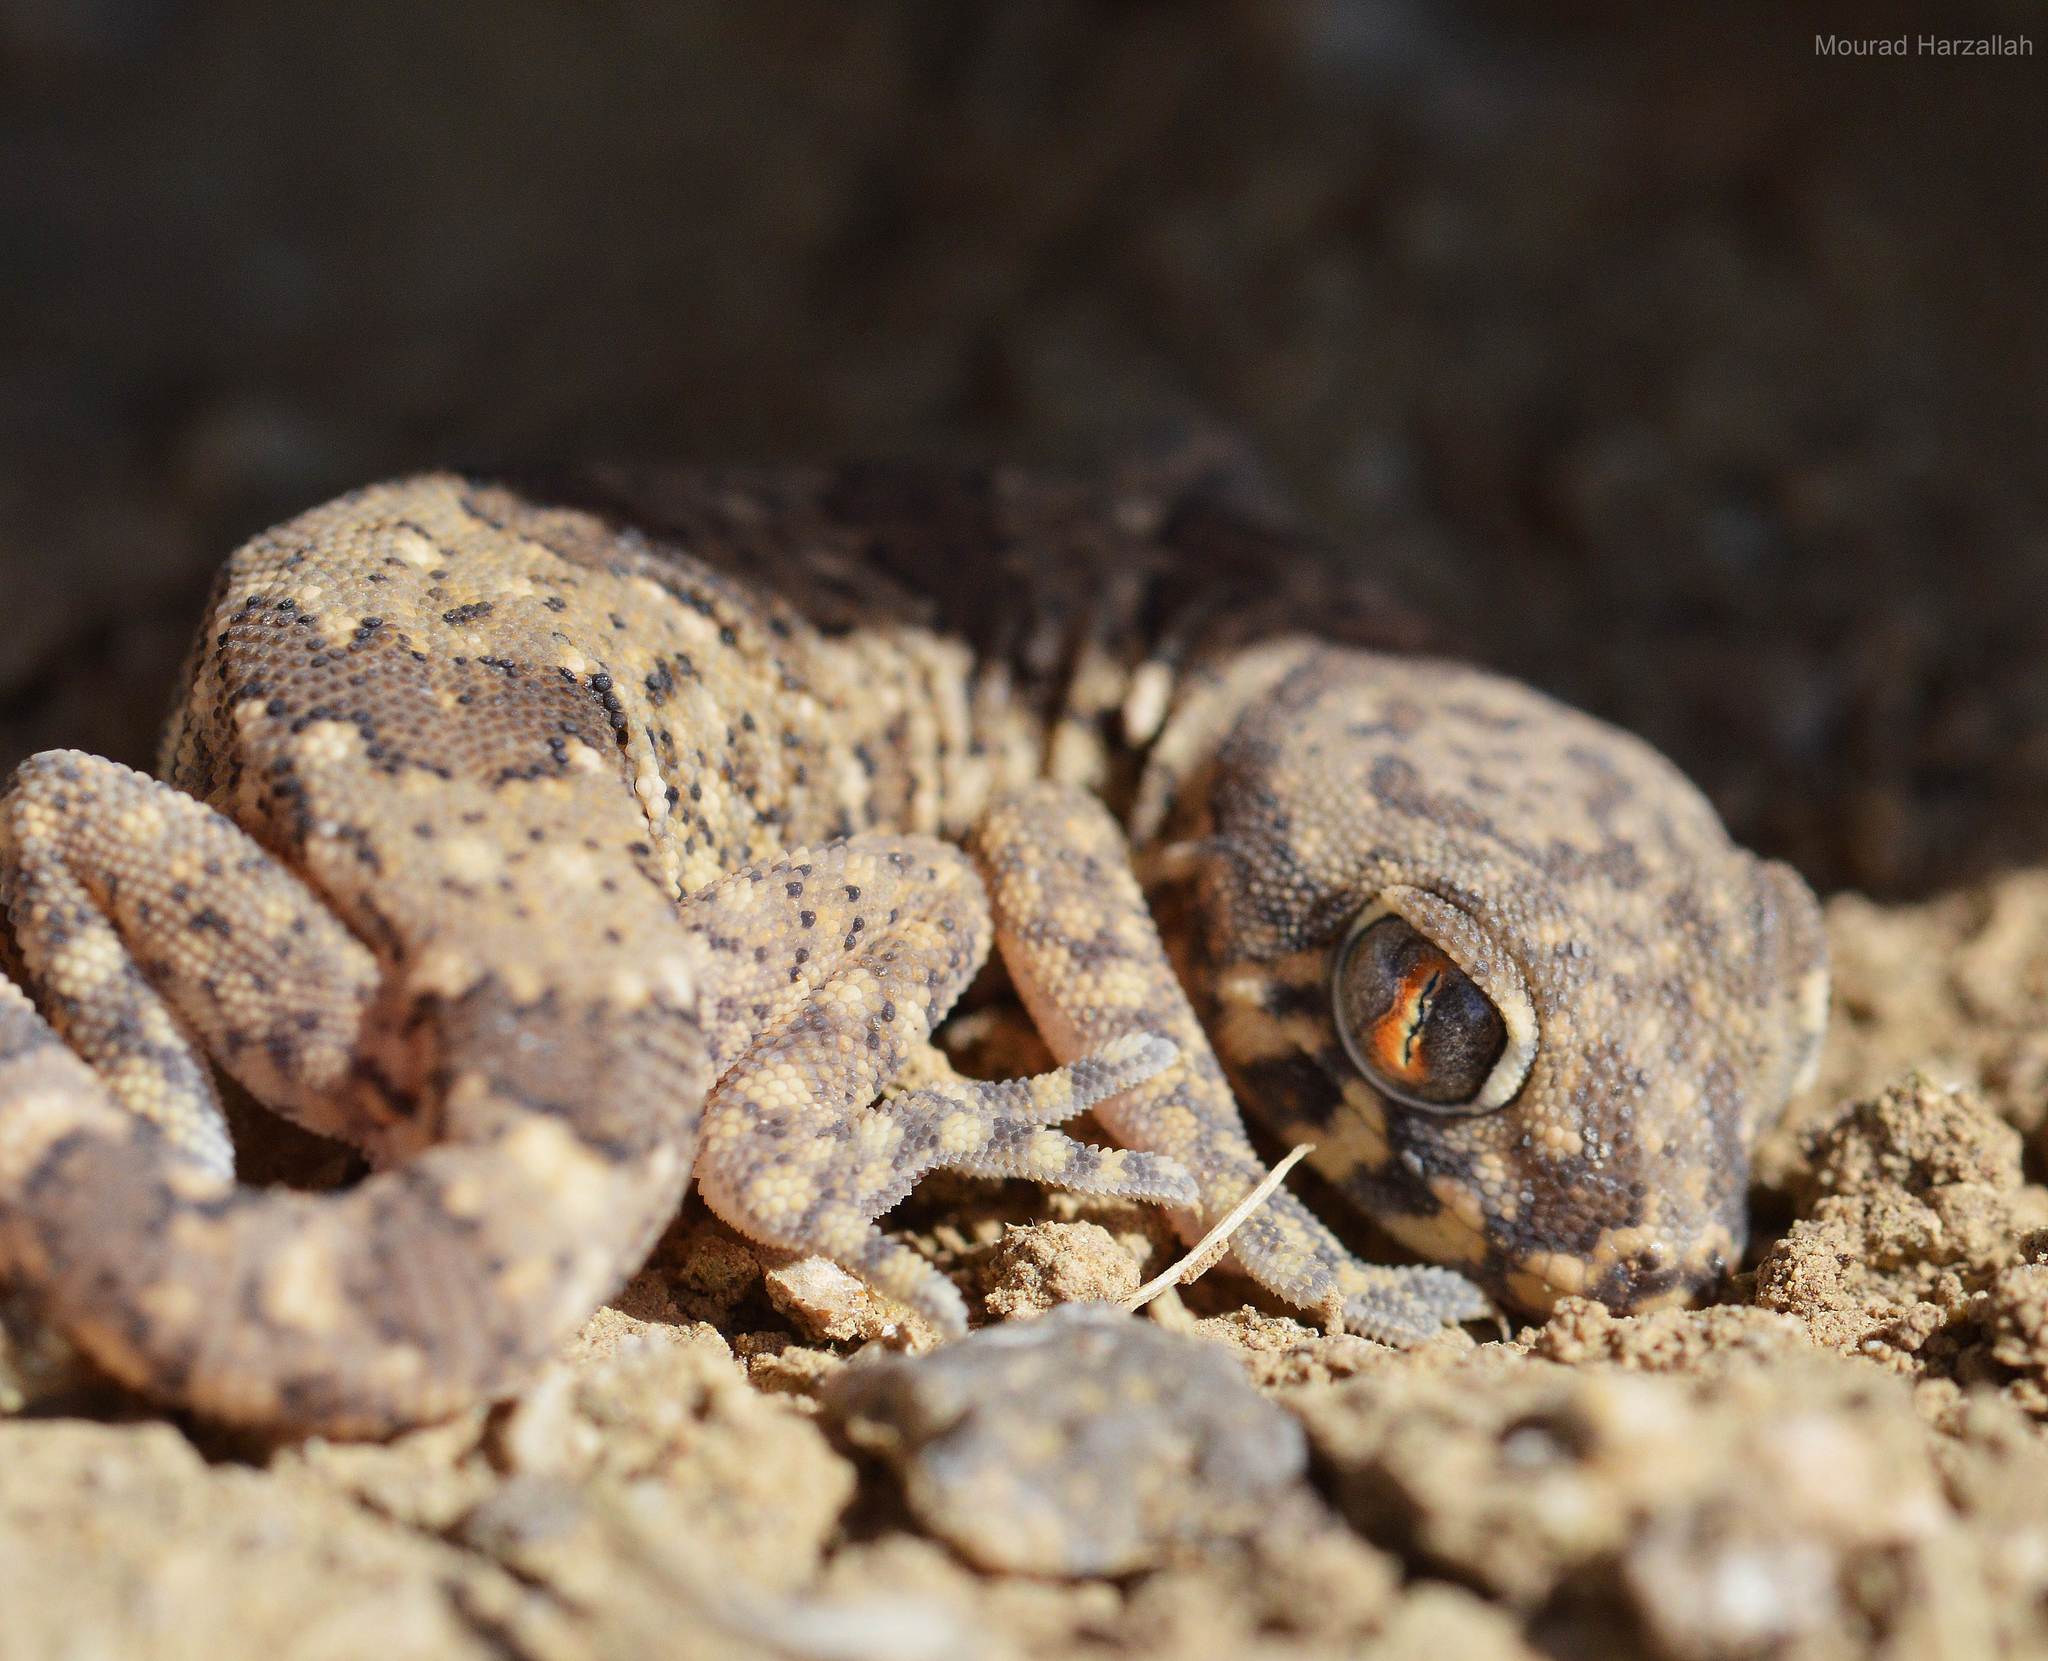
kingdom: Animalia
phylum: Chordata
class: Squamata
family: Gekkonidae
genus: Stenodactylus
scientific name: Stenodactylus mauritanicus
